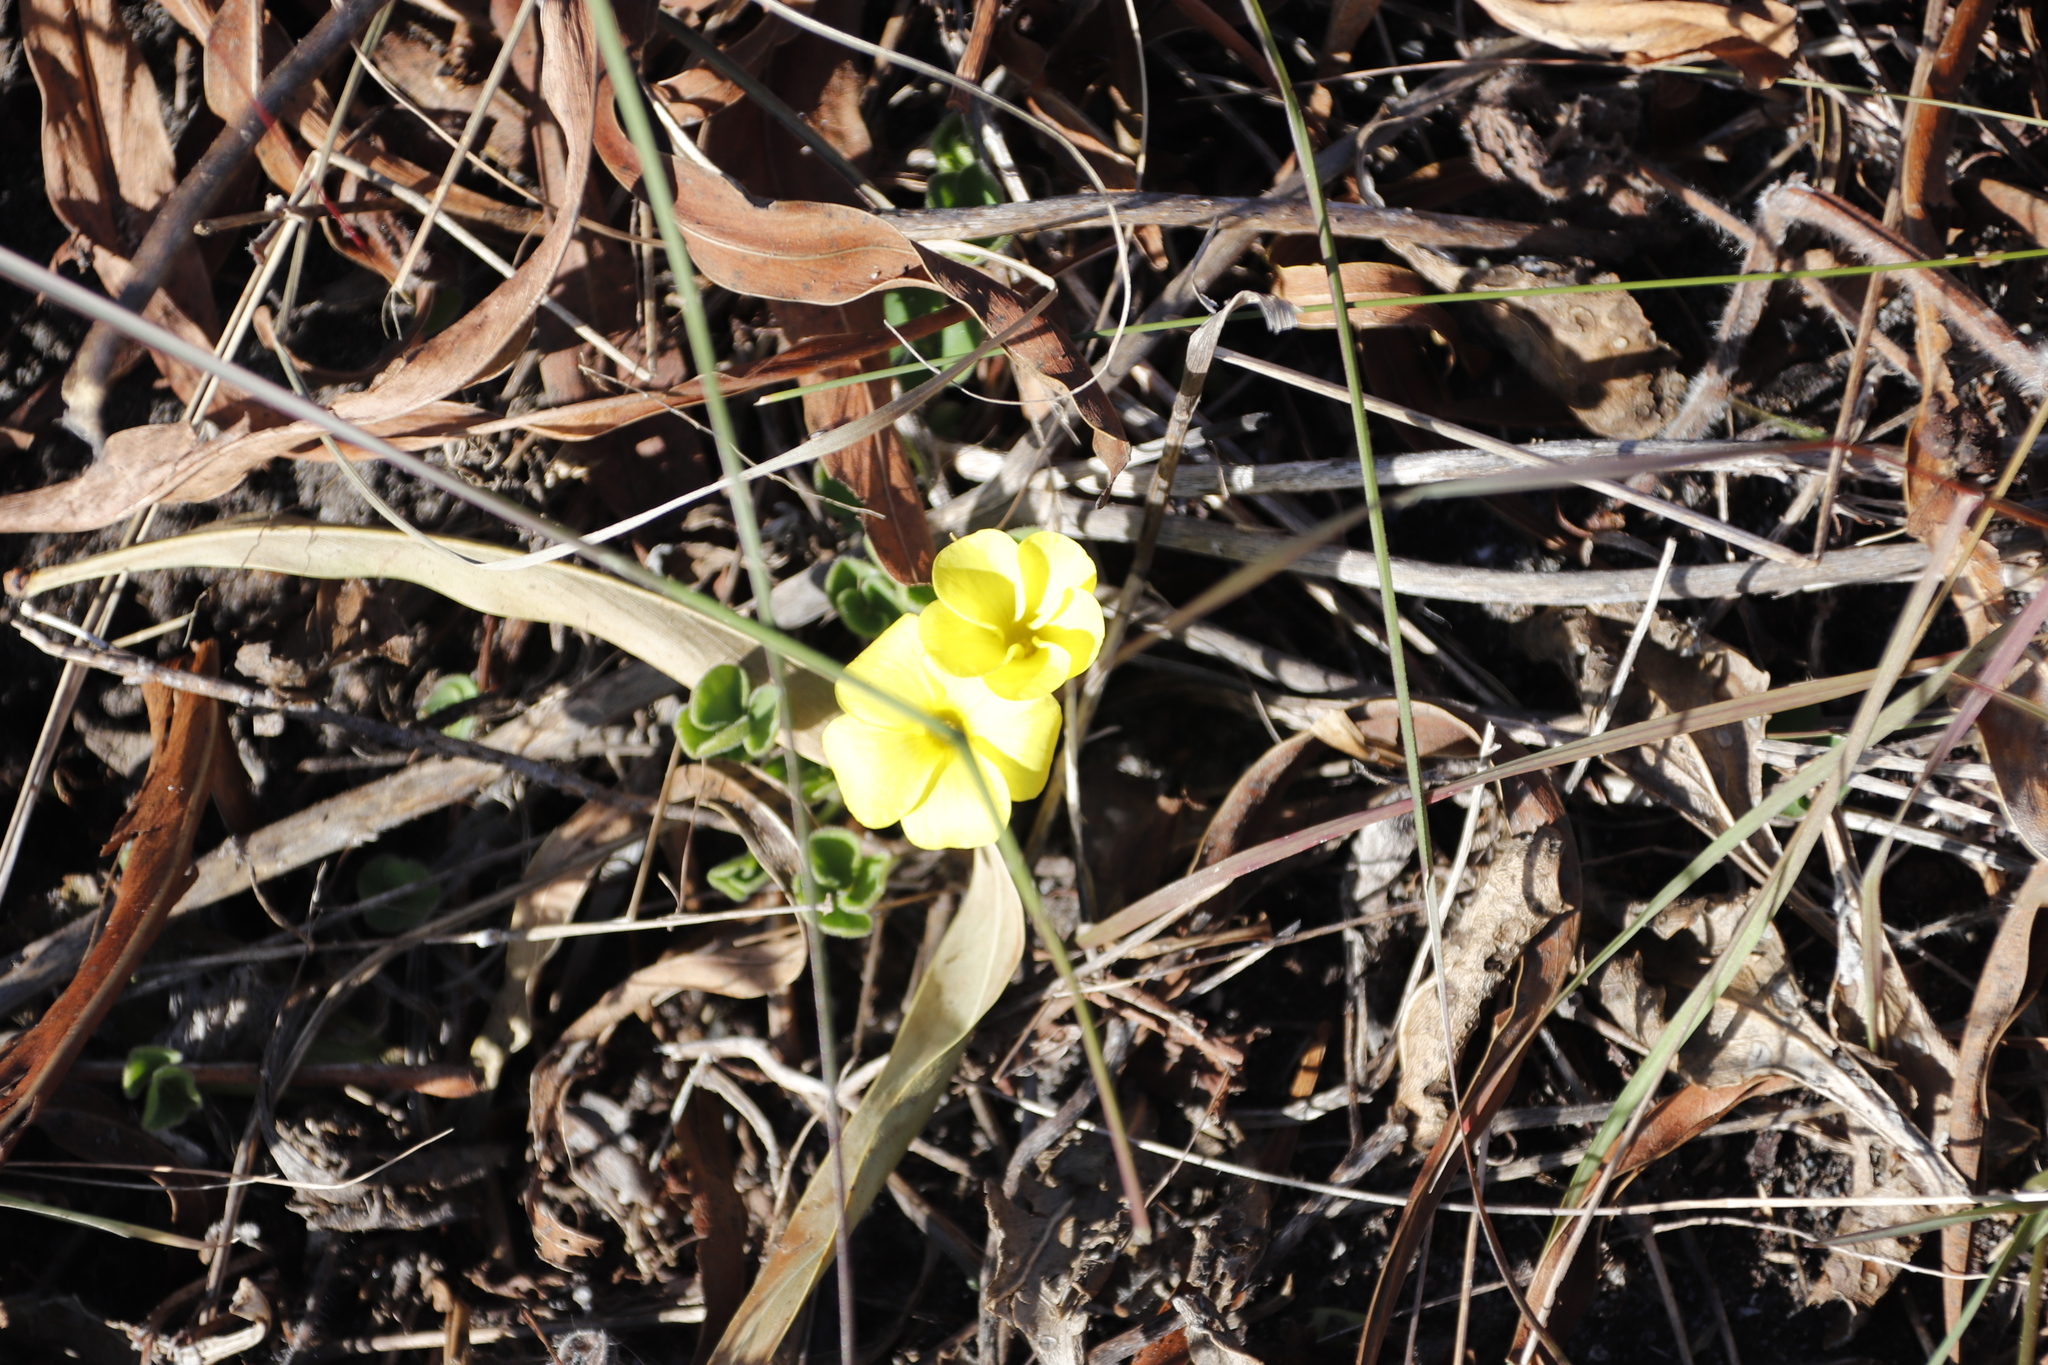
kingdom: Plantae
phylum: Tracheophyta
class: Magnoliopsida
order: Oxalidales
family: Oxalidaceae
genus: Oxalis
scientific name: Oxalis luteola
